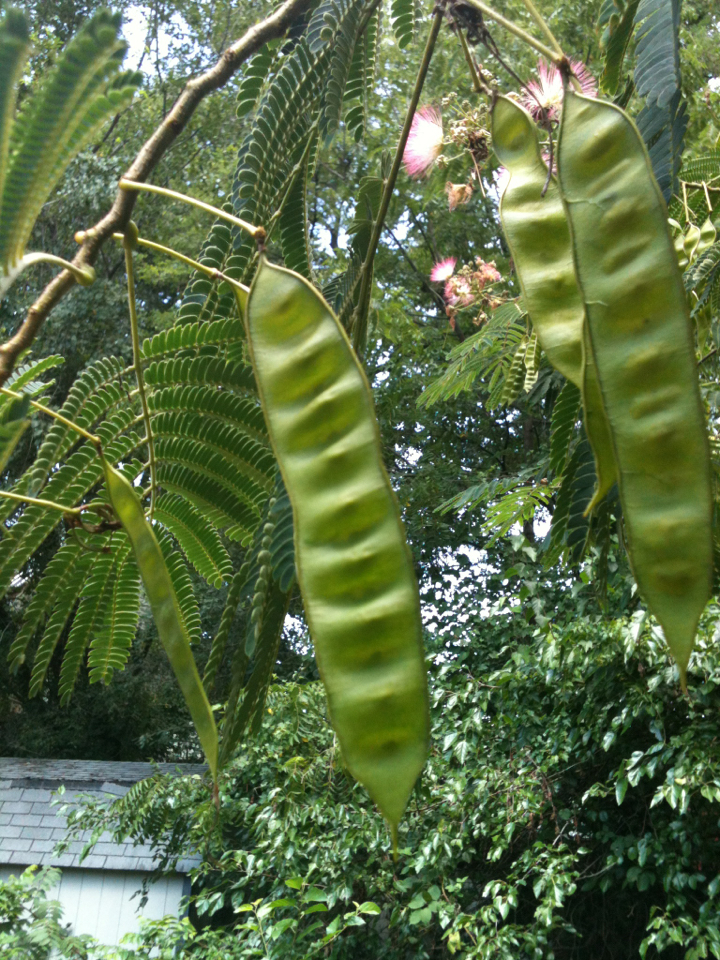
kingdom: Plantae
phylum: Tracheophyta
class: Magnoliopsida
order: Fabales
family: Fabaceae
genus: Albizia
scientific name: Albizia julibrissin
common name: Silktree
